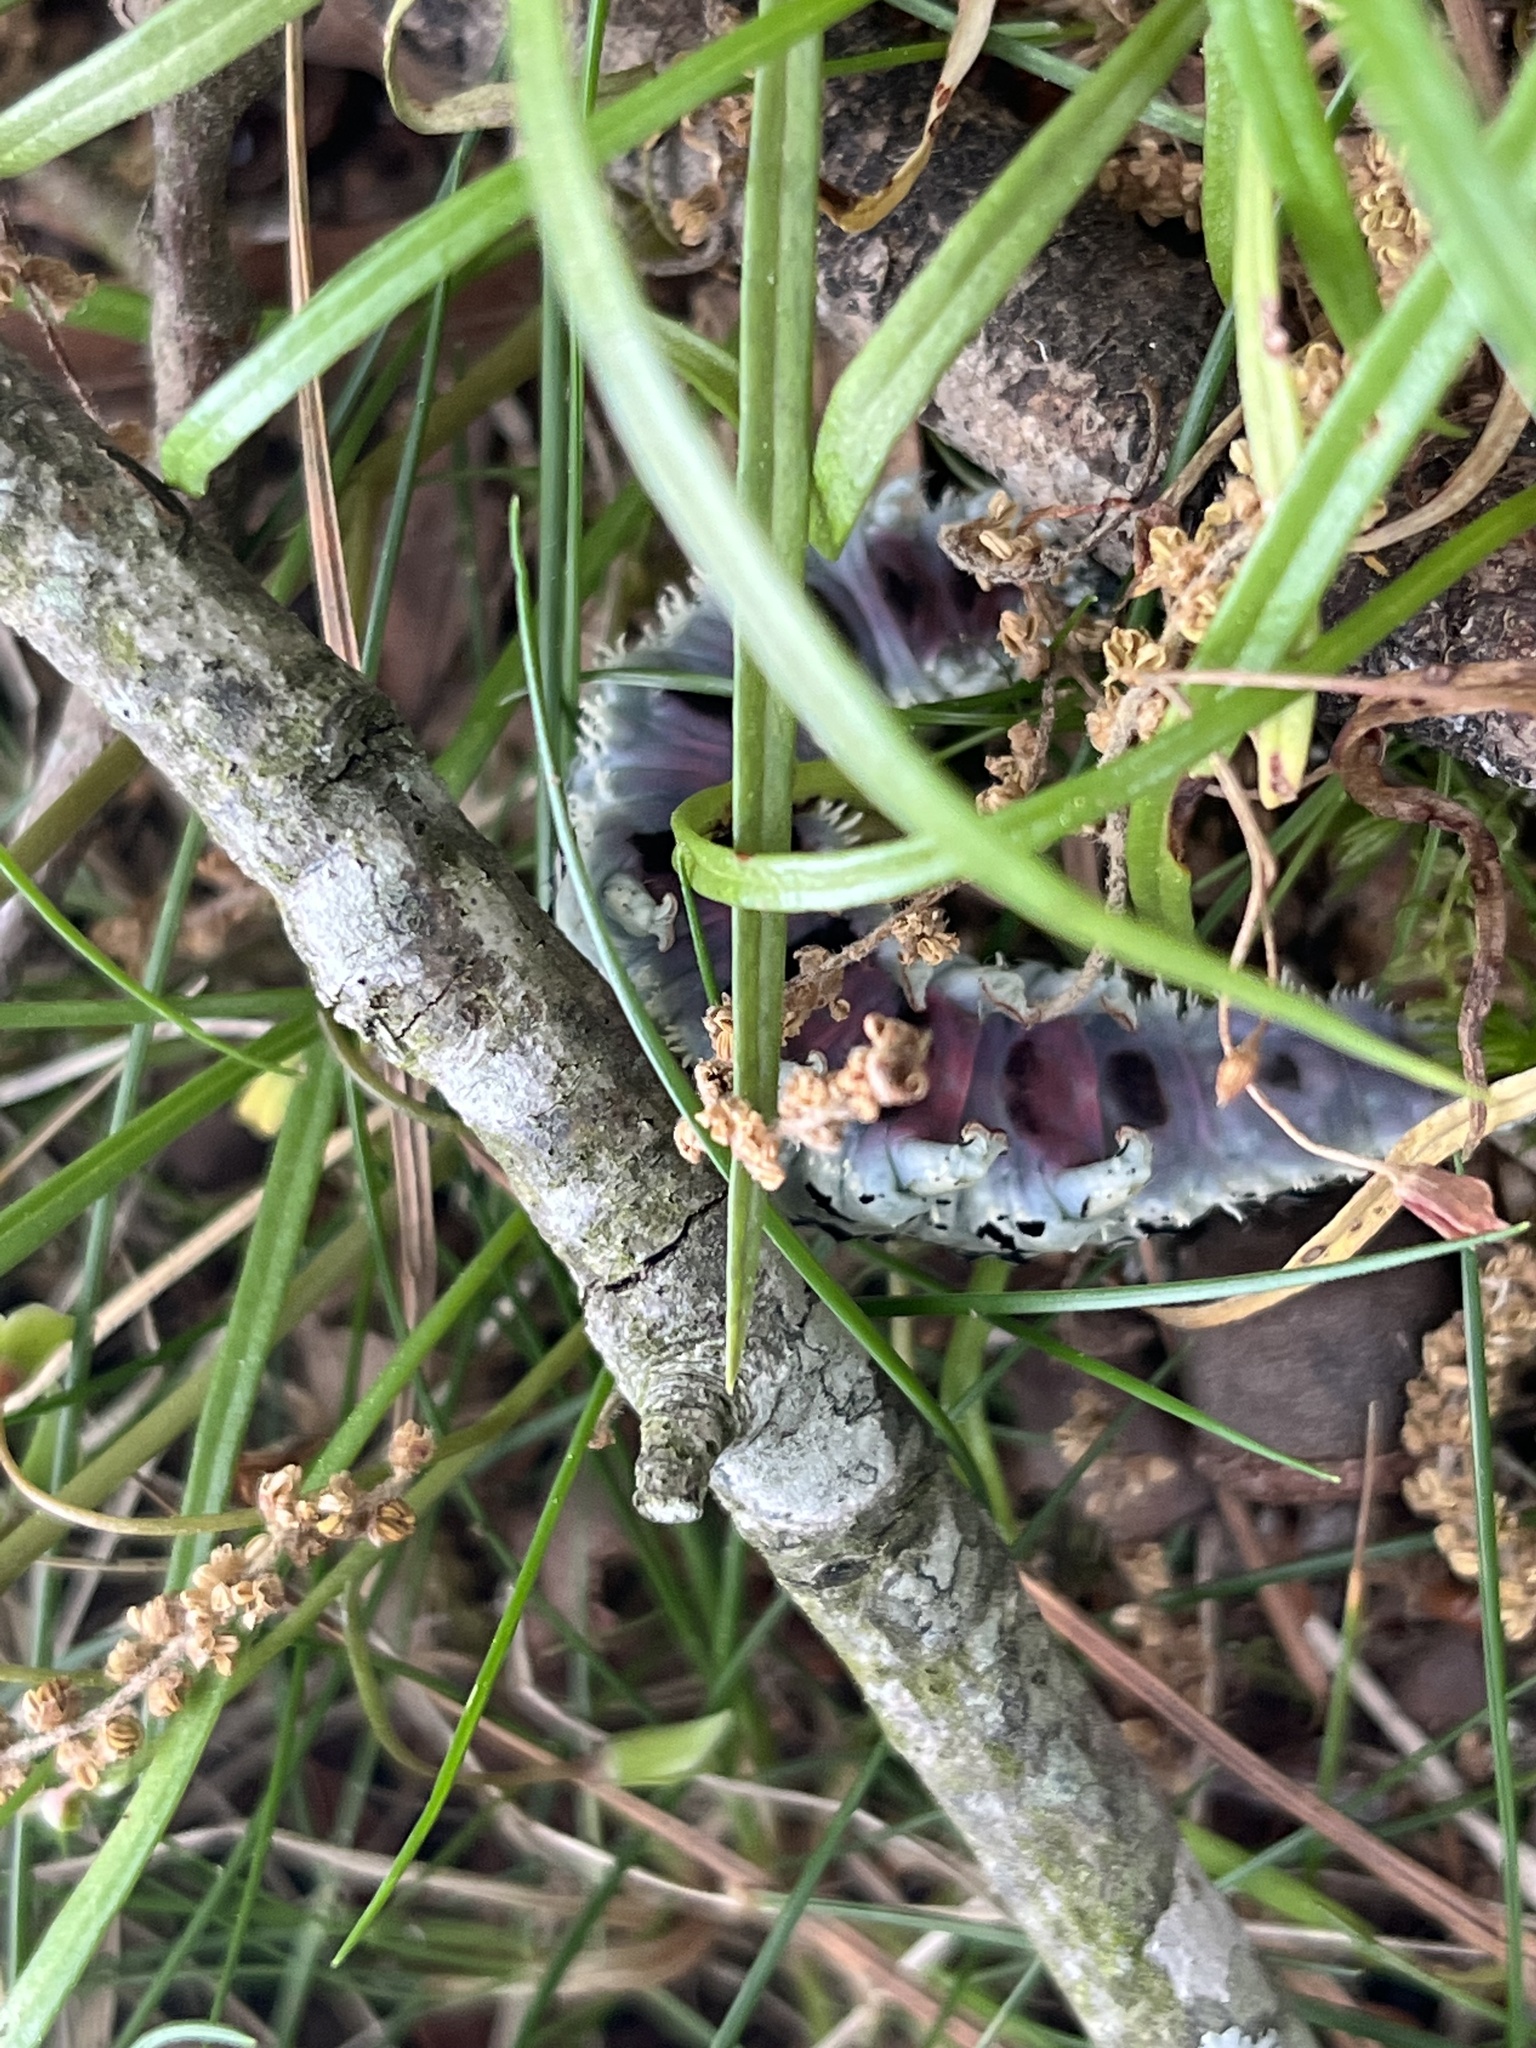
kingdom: Animalia
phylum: Arthropoda
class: Insecta
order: Lepidoptera
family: Erebidae
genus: Catocala
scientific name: Catocala ilia
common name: Ilia underwing
